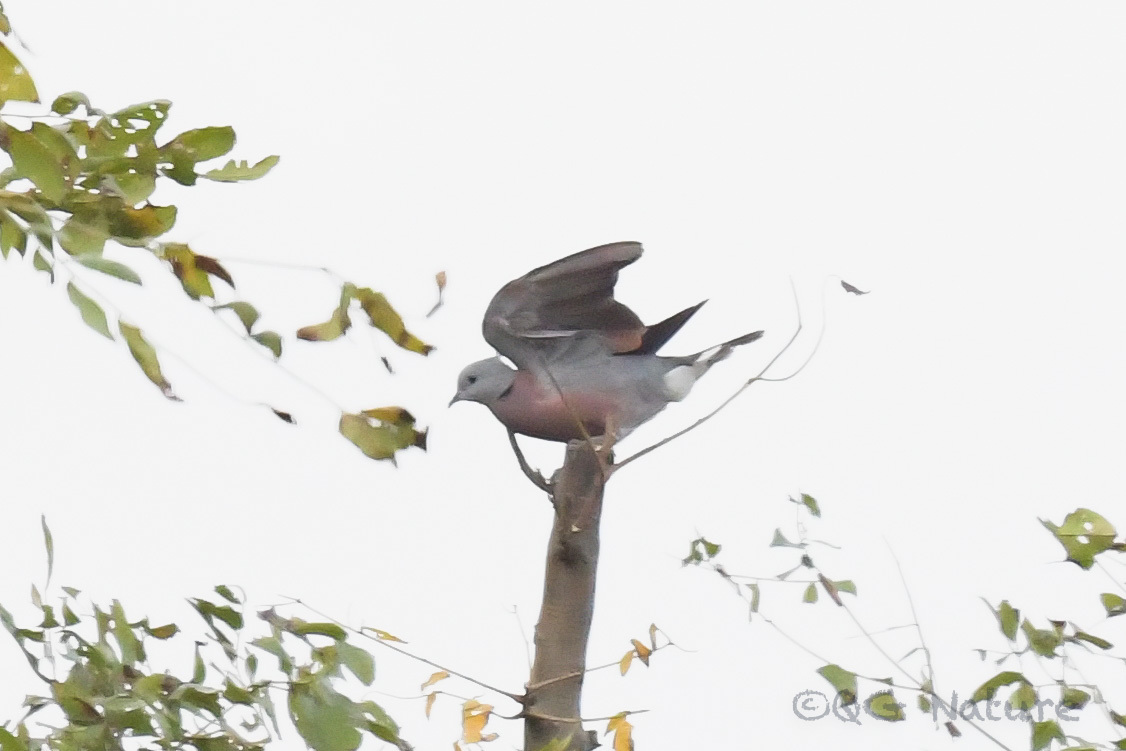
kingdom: Animalia
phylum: Chordata
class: Aves
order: Columbiformes
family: Columbidae
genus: Streptopelia
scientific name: Streptopelia tranquebarica
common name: Red turtle dove
